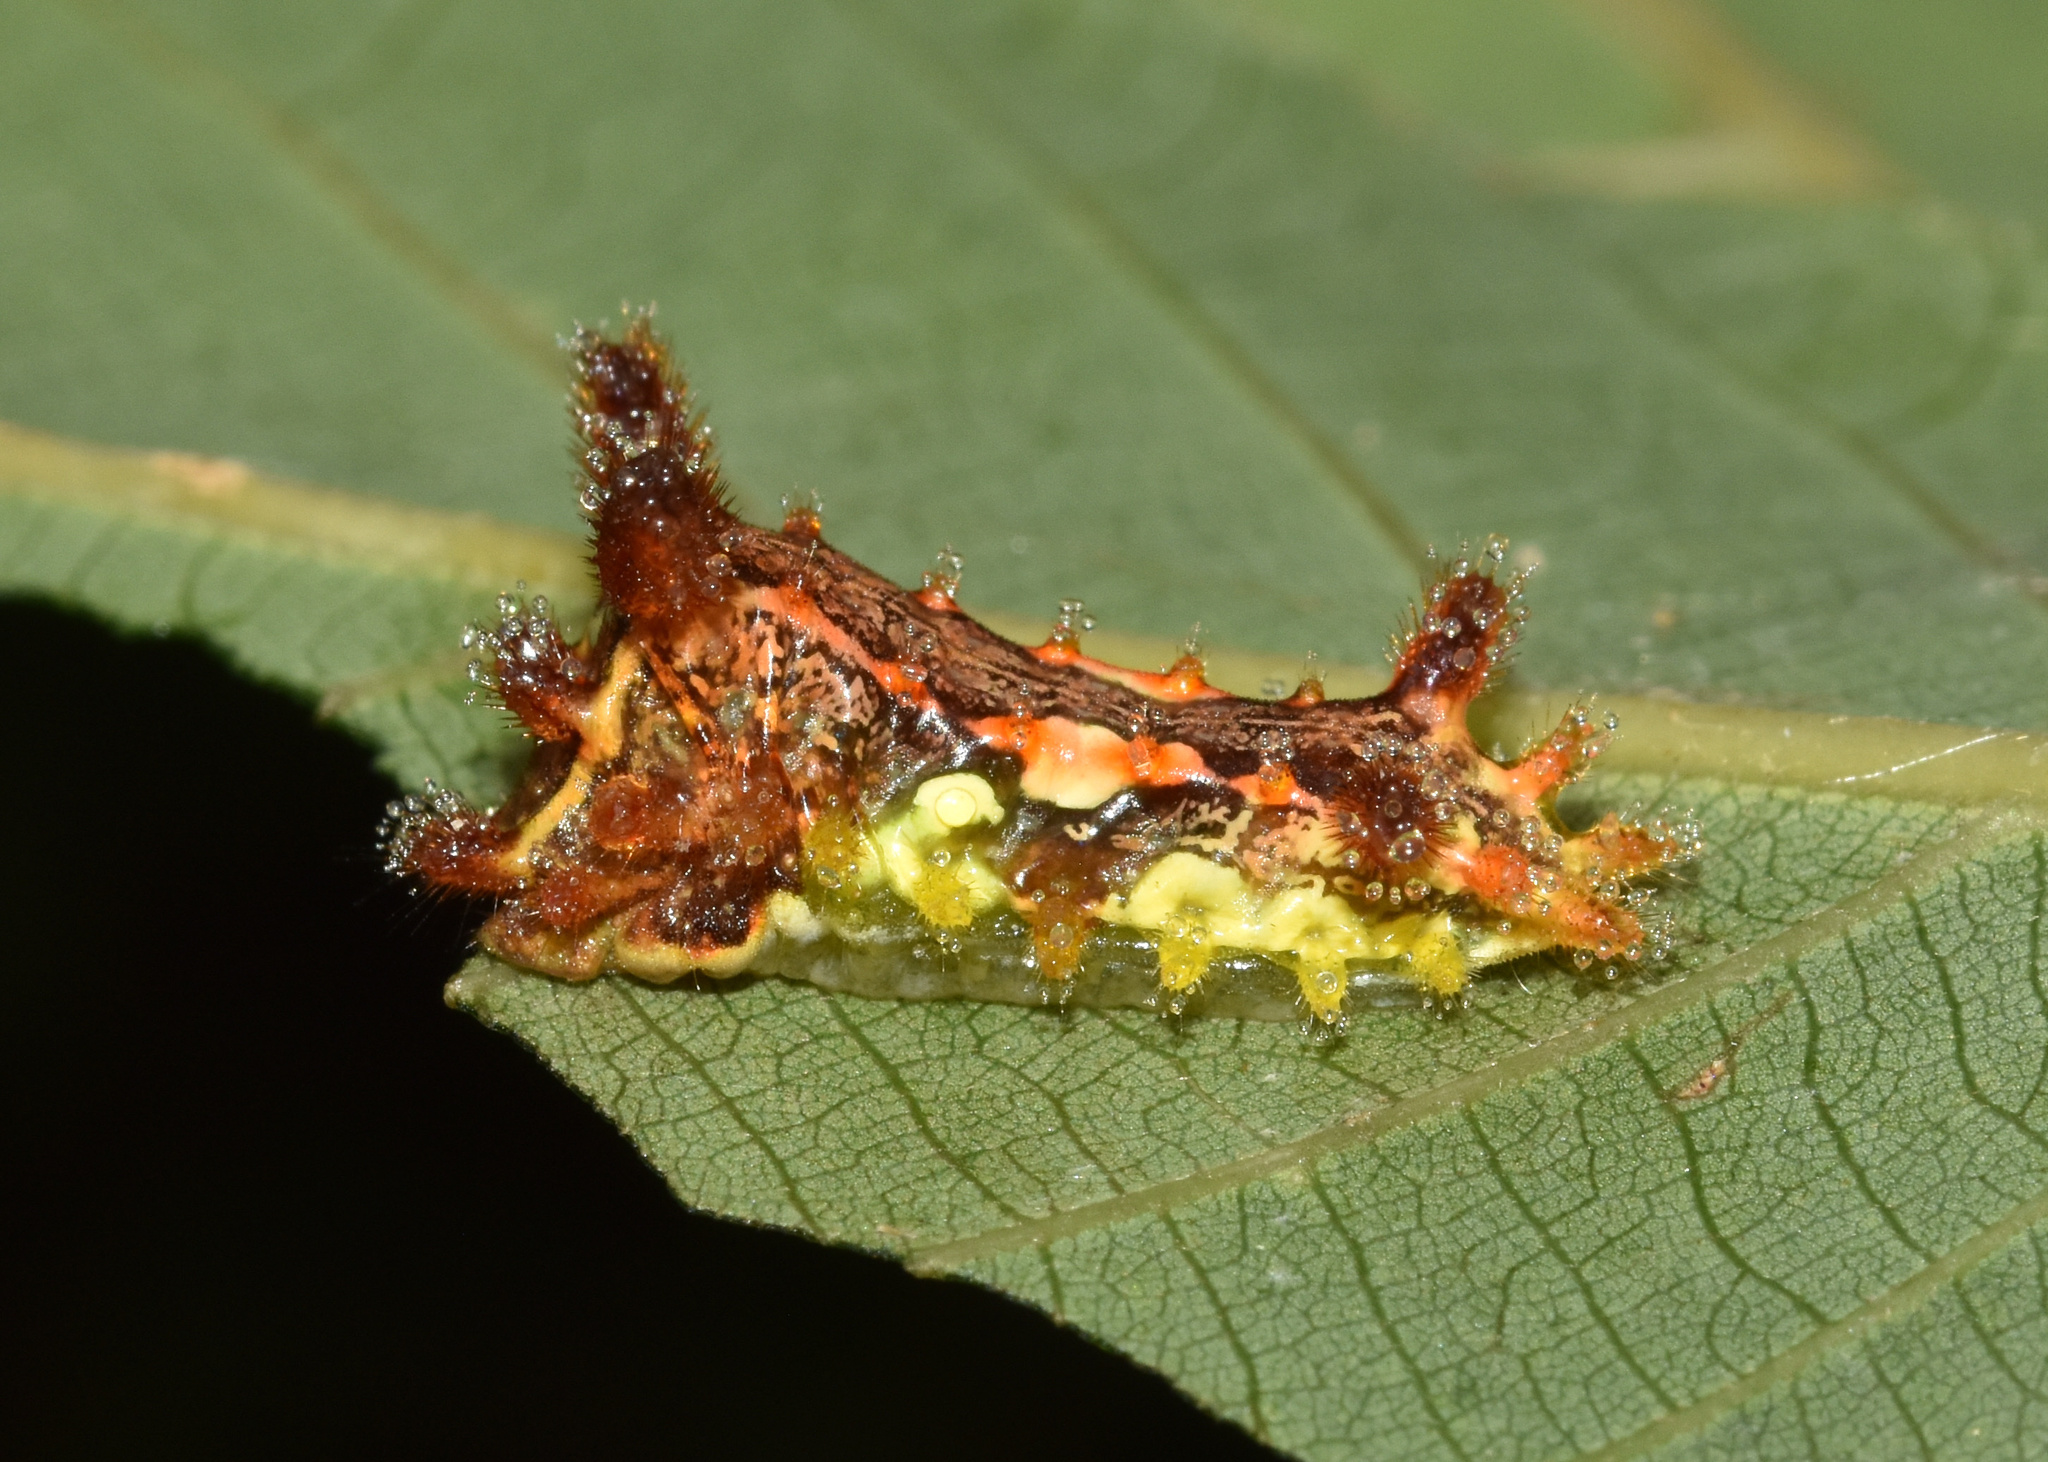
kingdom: Animalia
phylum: Arthropoda
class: Insecta
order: Lepidoptera
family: Limacodidae
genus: Neomocena
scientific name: Neomocena convergens
